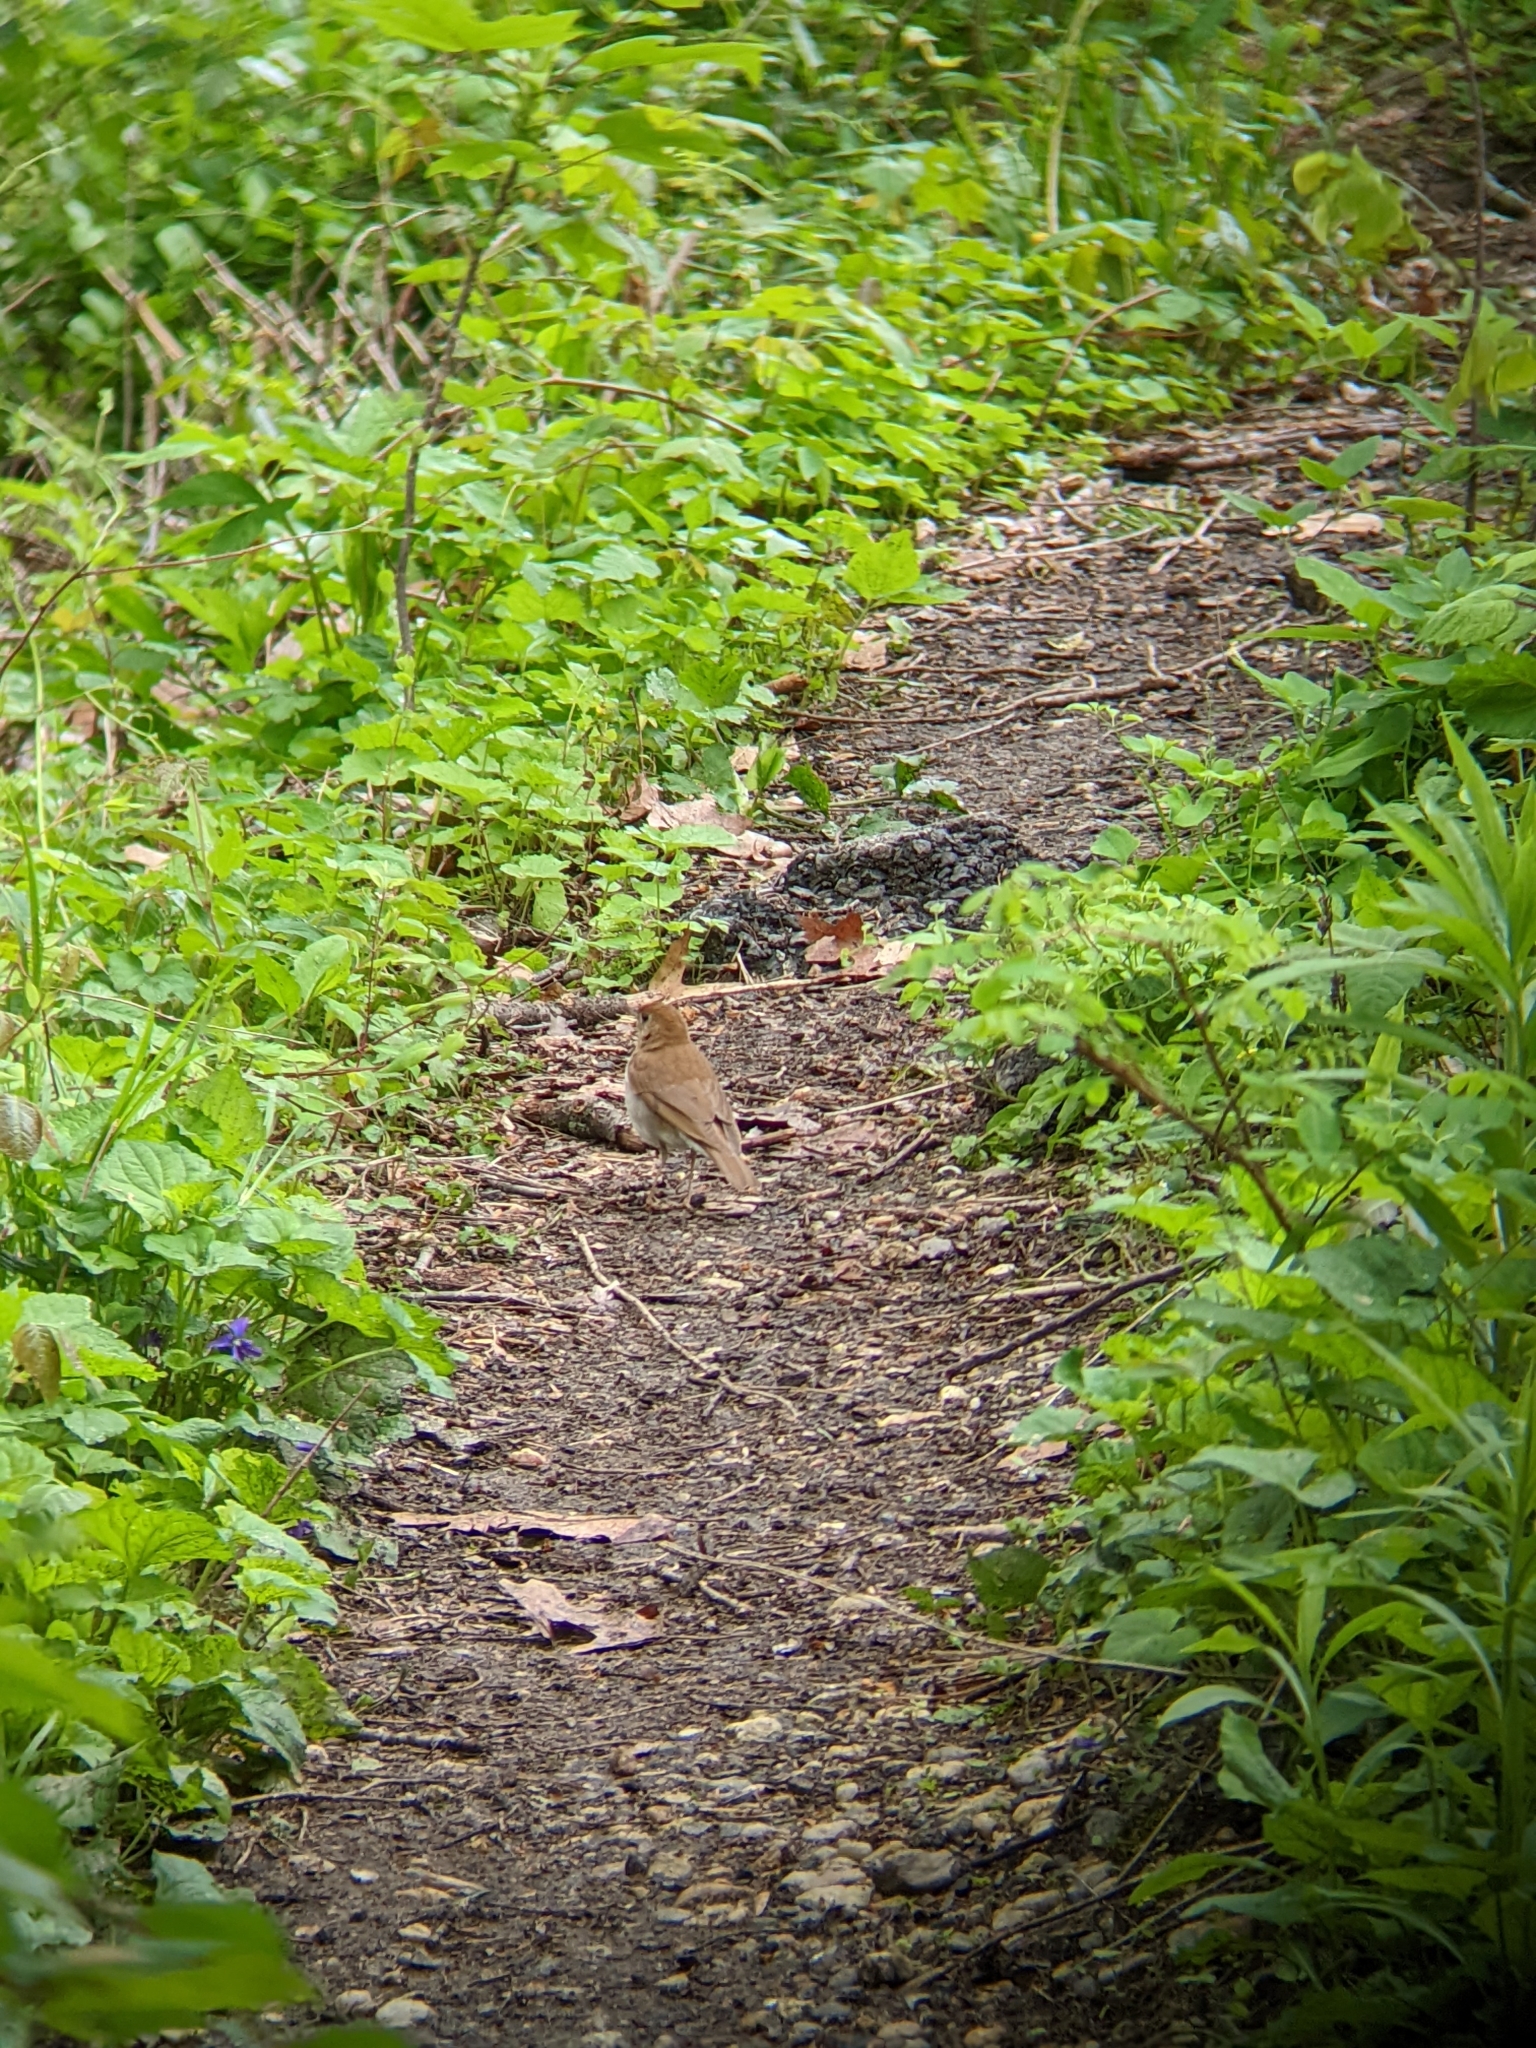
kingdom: Animalia
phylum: Chordata
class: Aves
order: Passeriformes
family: Turdidae
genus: Catharus
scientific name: Catharus fuscescens
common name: Veery
